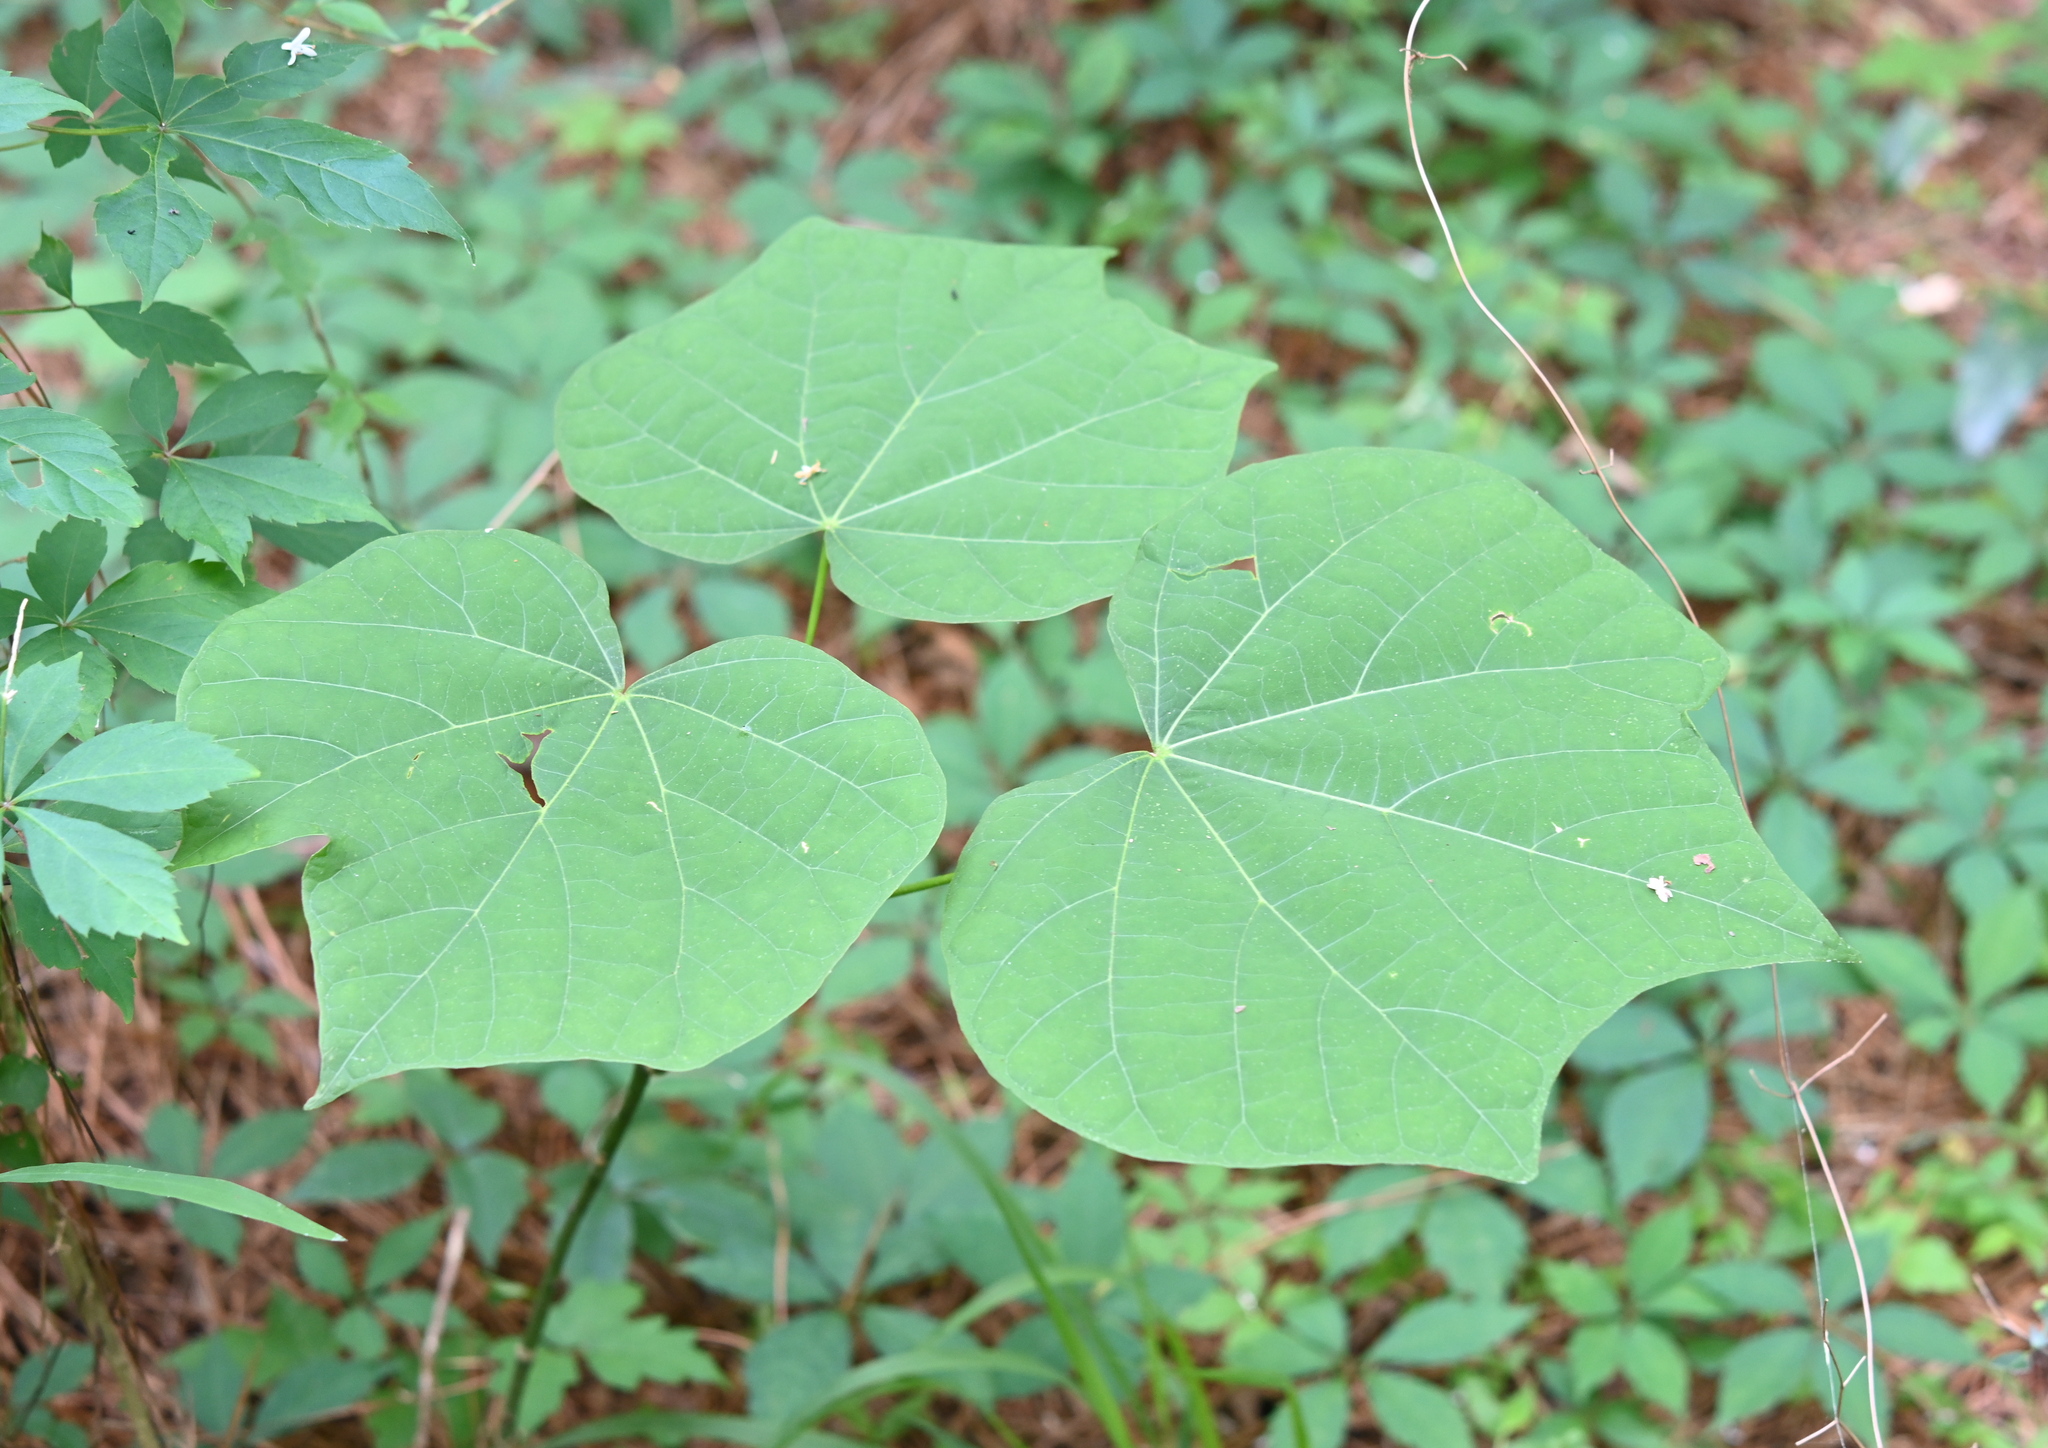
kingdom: Plantae
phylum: Tracheophyta
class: Magnoliopsida
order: Malvales
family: Malvaceae
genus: Firmiana
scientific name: Firmiana simplex
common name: Chinese parasoltree
